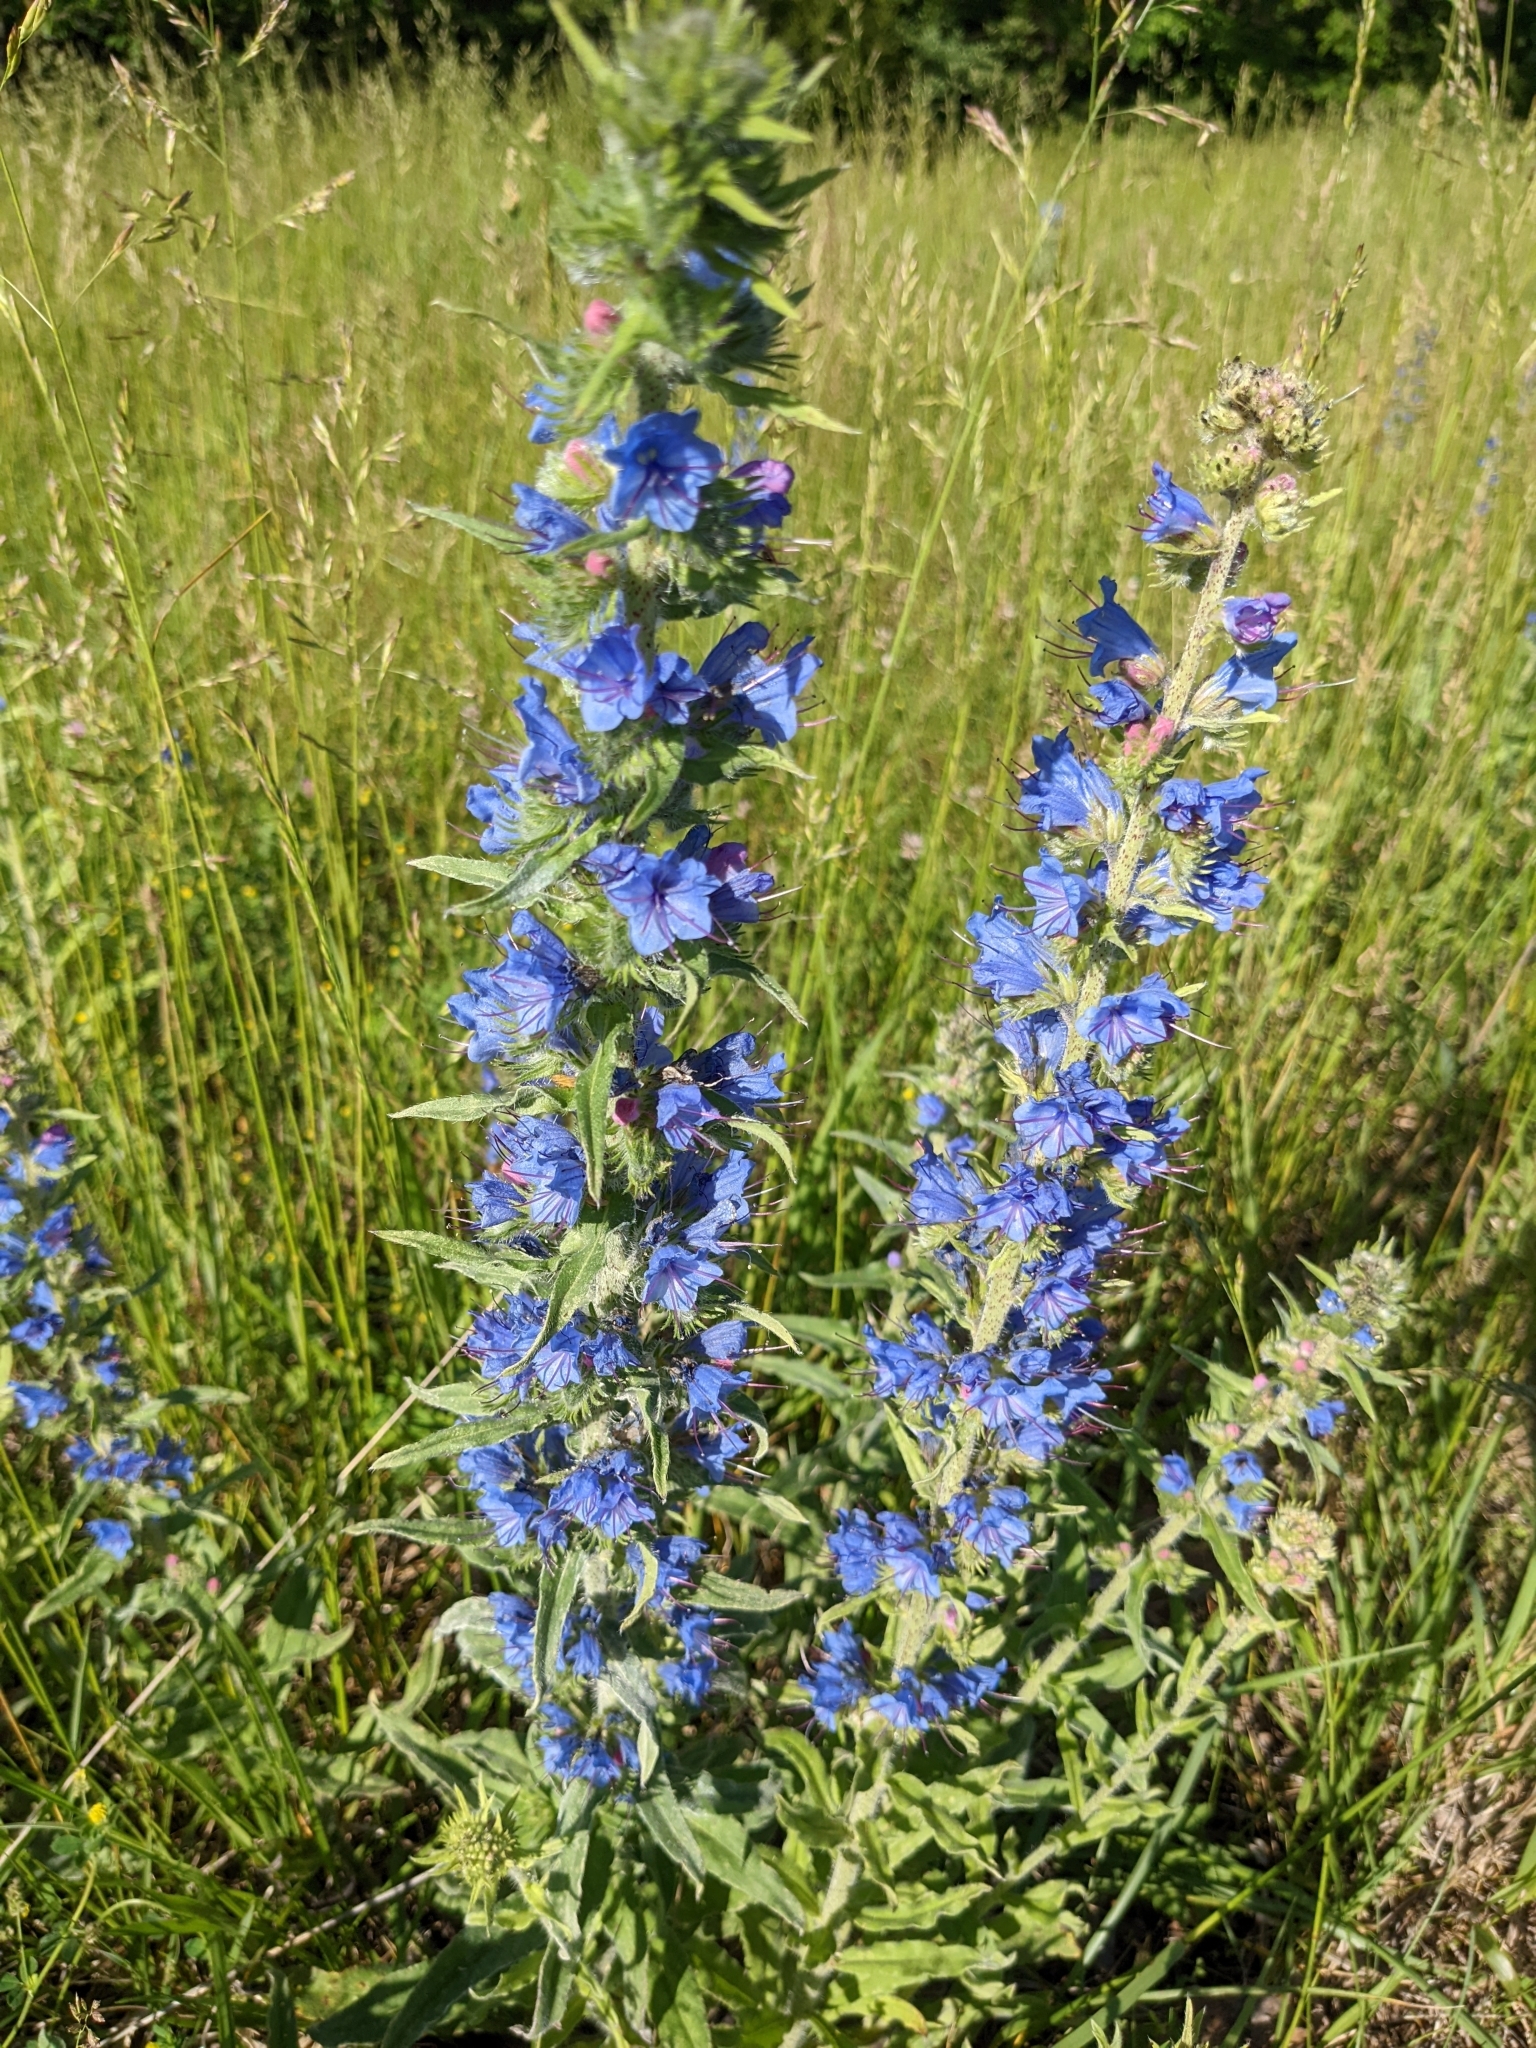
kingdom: Plantae
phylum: Tracheophyta
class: Magnoliopsida
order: Boraginales
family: Boraginaceae
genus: Echium
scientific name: Echium vulgare
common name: Common viper's bugloss
